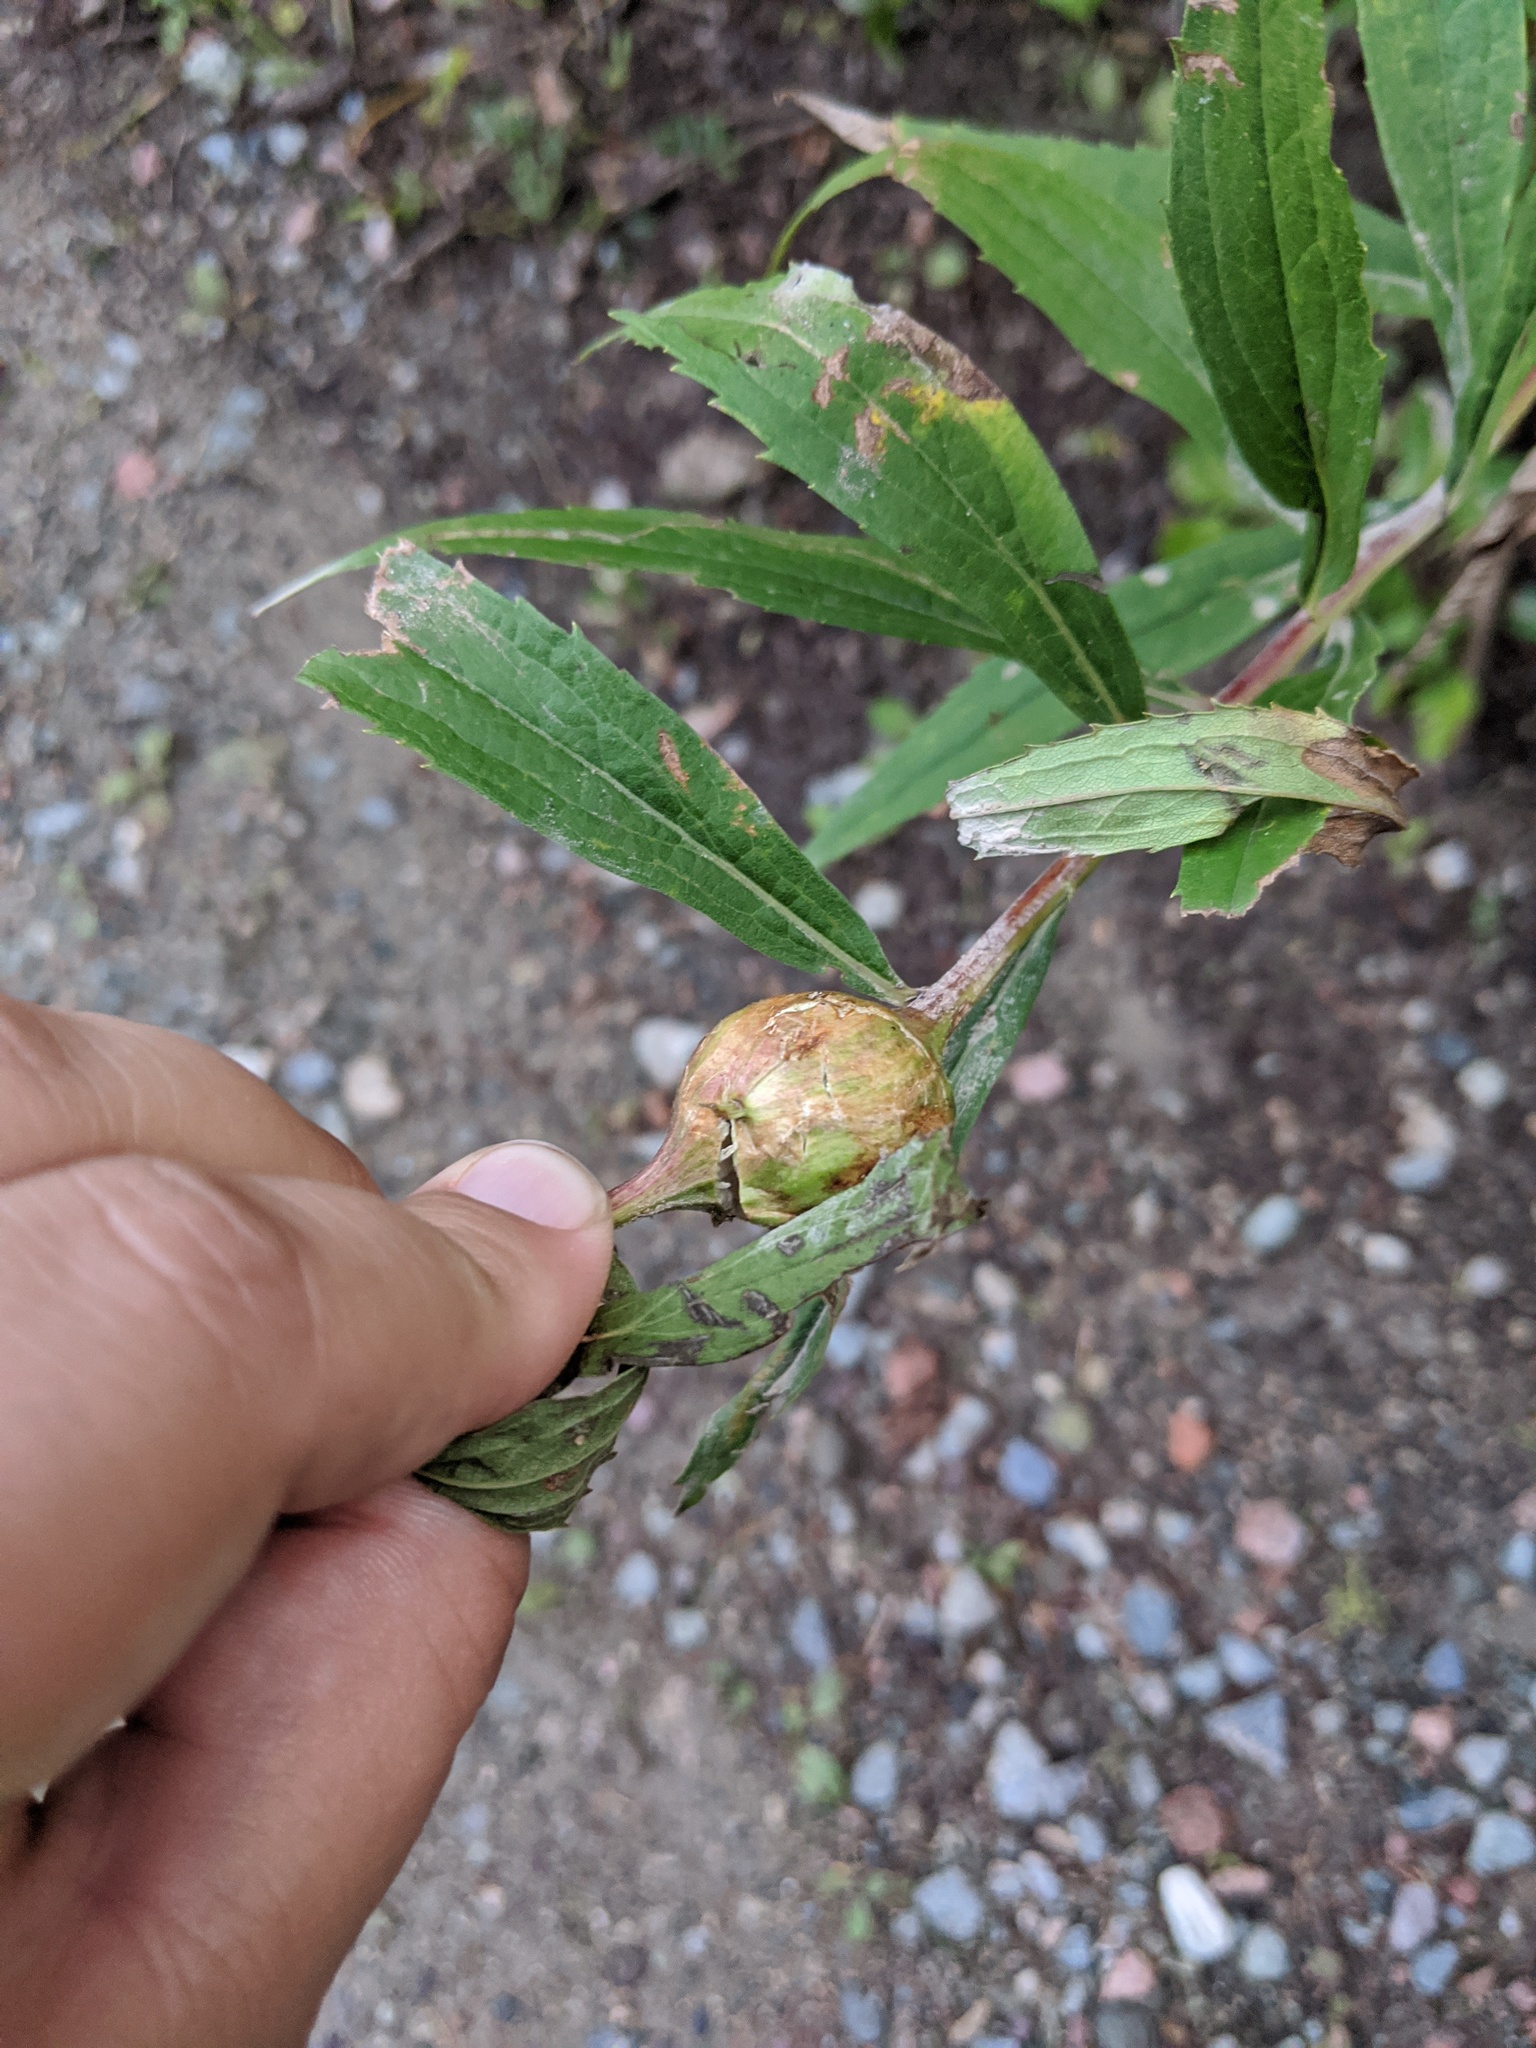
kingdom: Animalia
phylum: Arthropoda
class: Insecta
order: Diptera
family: Tephritidae
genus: Eurosta
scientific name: Eurosta solidaginis
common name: Goldenrod gall fly
